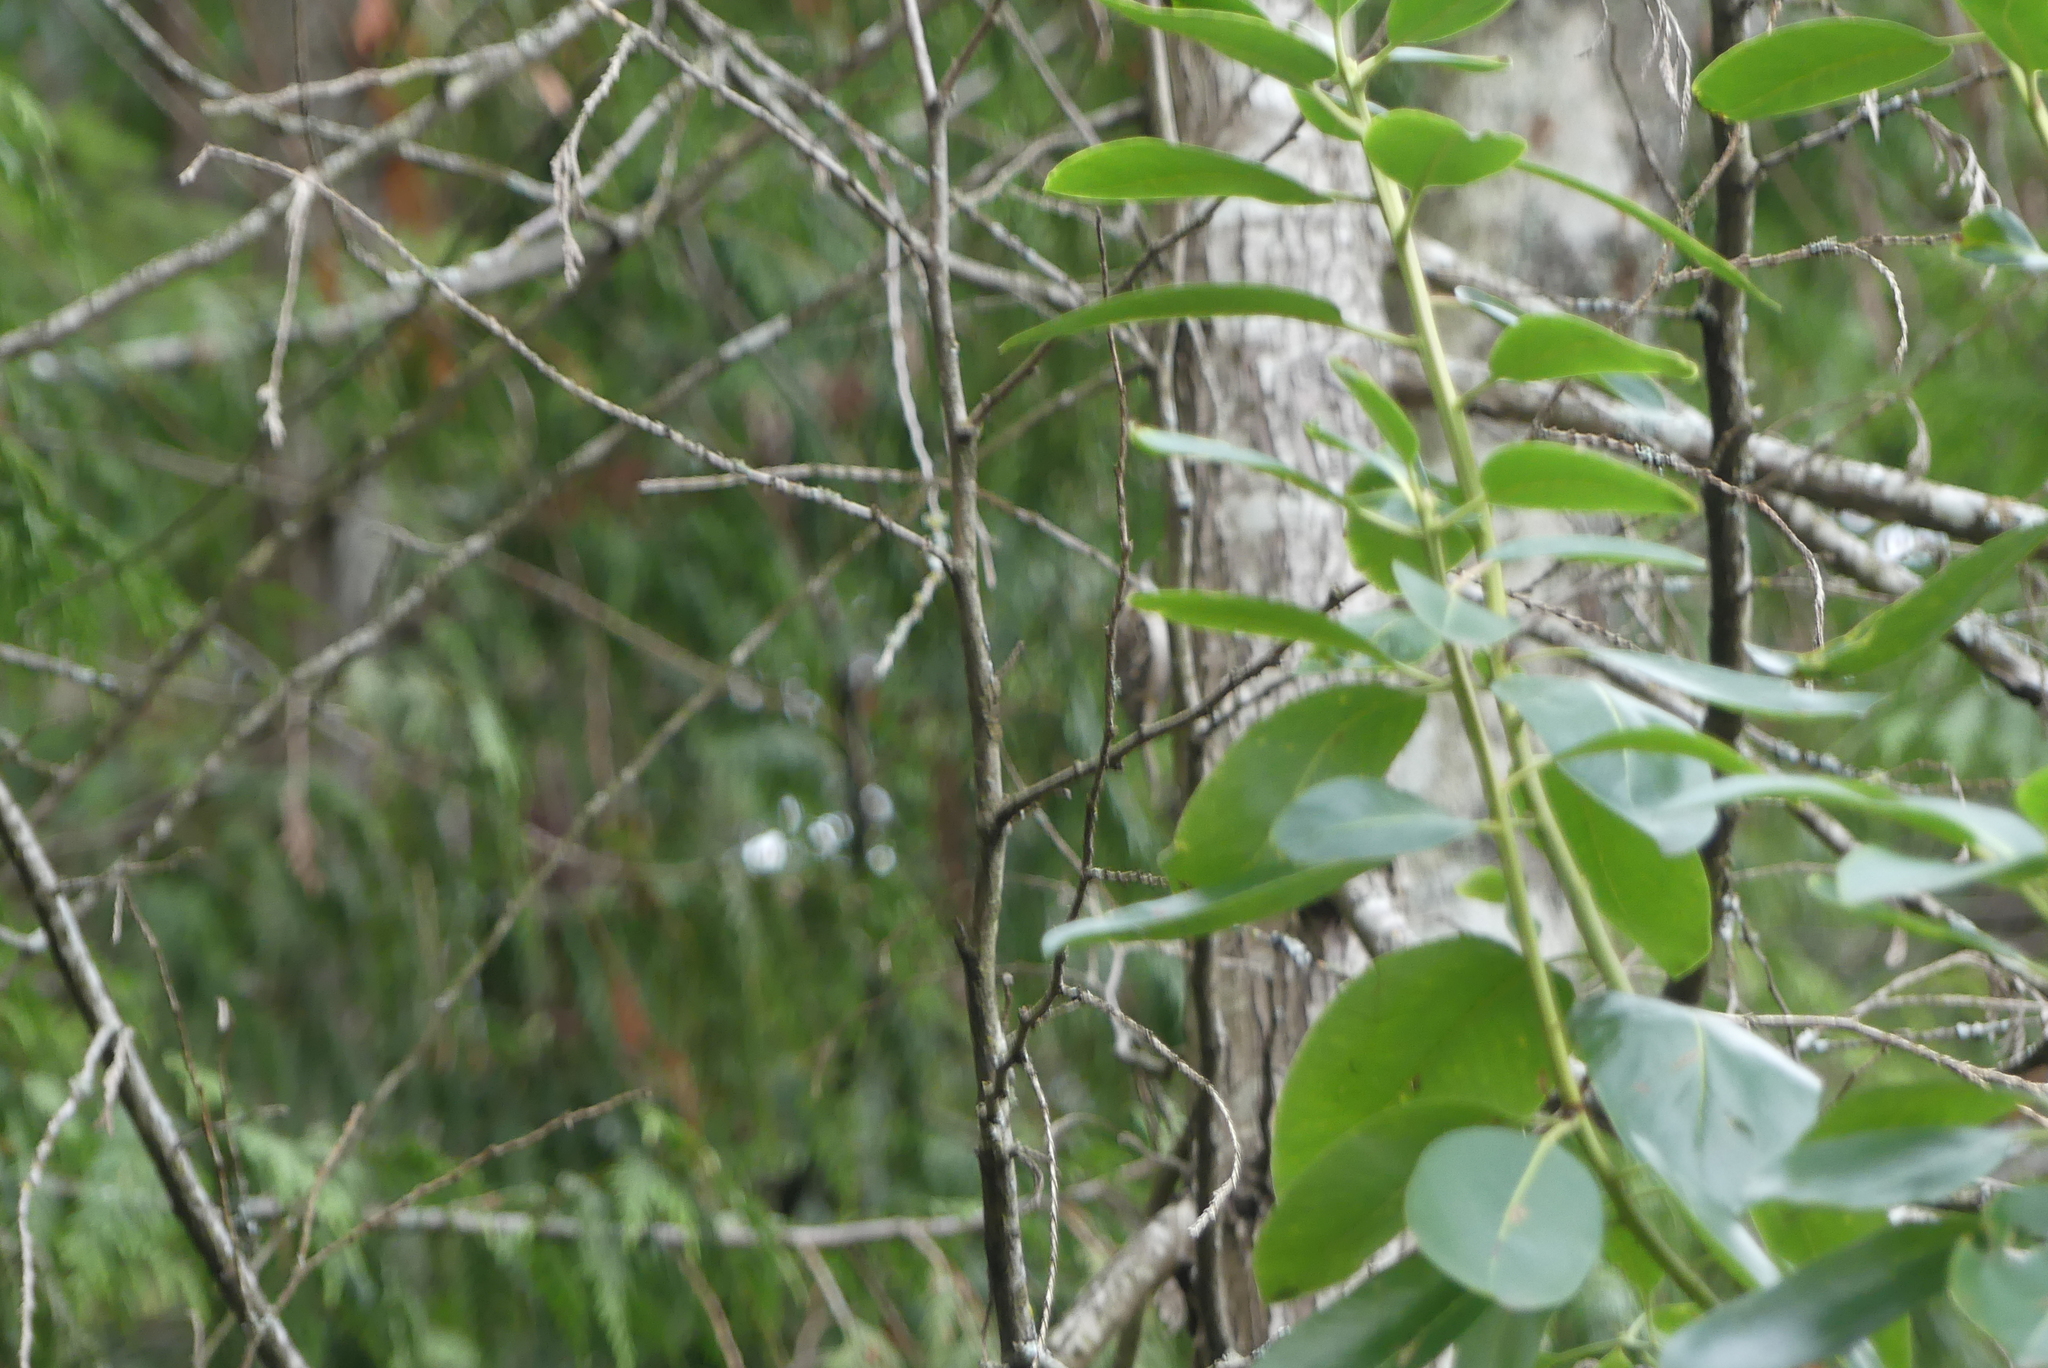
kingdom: Animalia
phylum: Chordata
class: Aves
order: Passeriformes
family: Certhiidae
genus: Certhia
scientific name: Certhia americana
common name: Brown creeper
